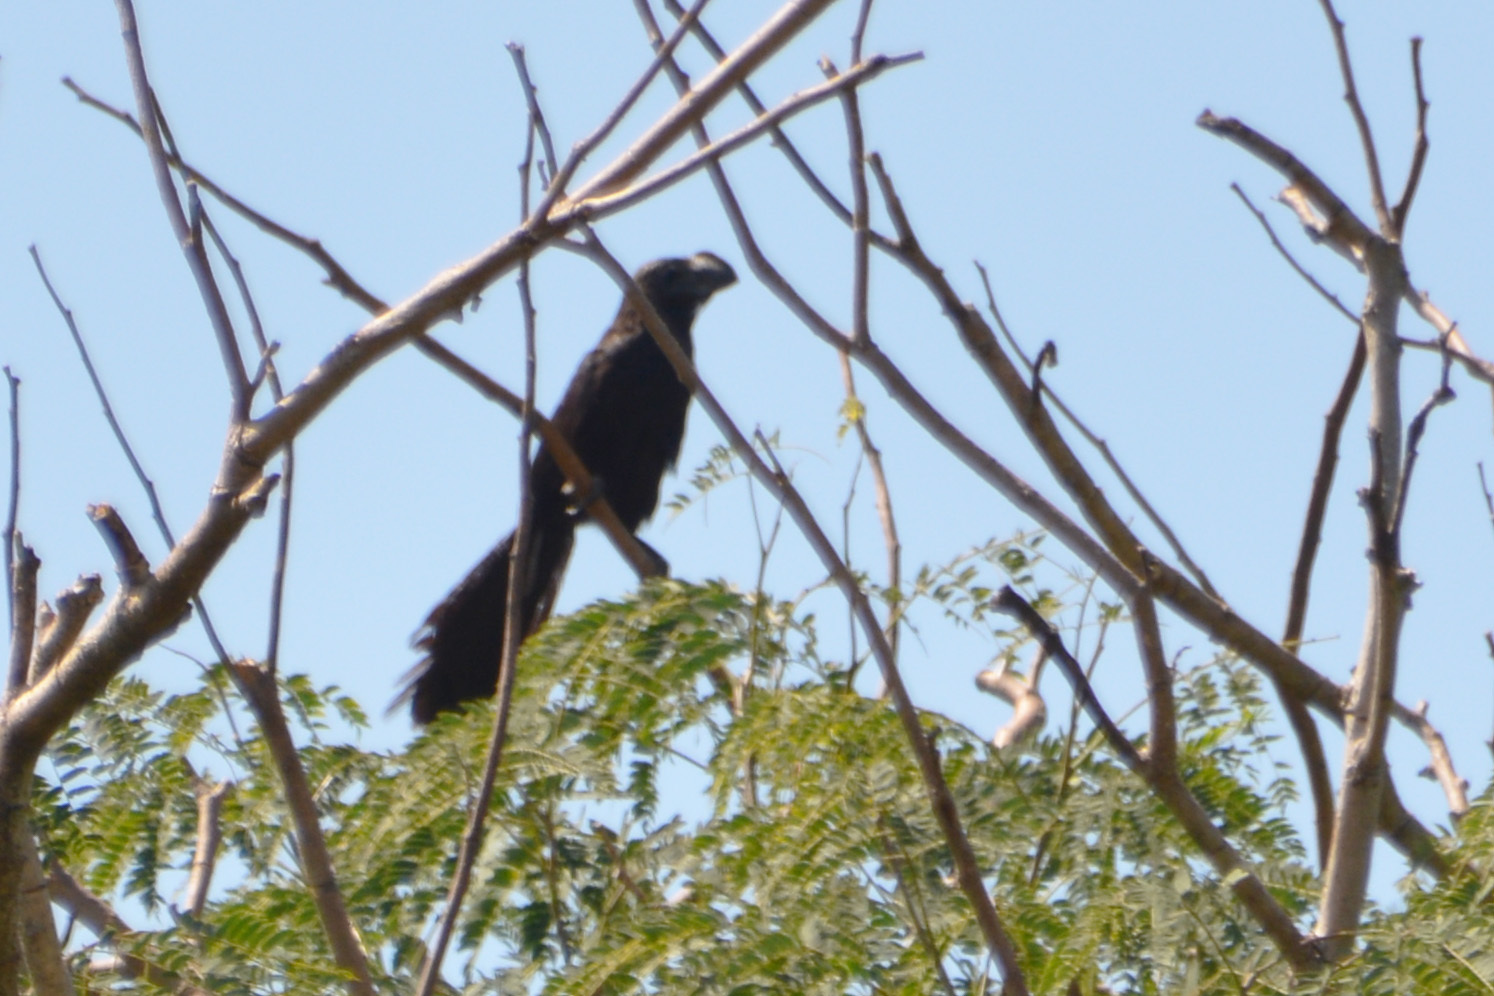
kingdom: Animalia
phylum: Chordata
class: Aves
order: Cuculiformes
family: Cuculidae
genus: Crotophaga
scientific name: Crotophaga ani
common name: Smooth-billed ani
